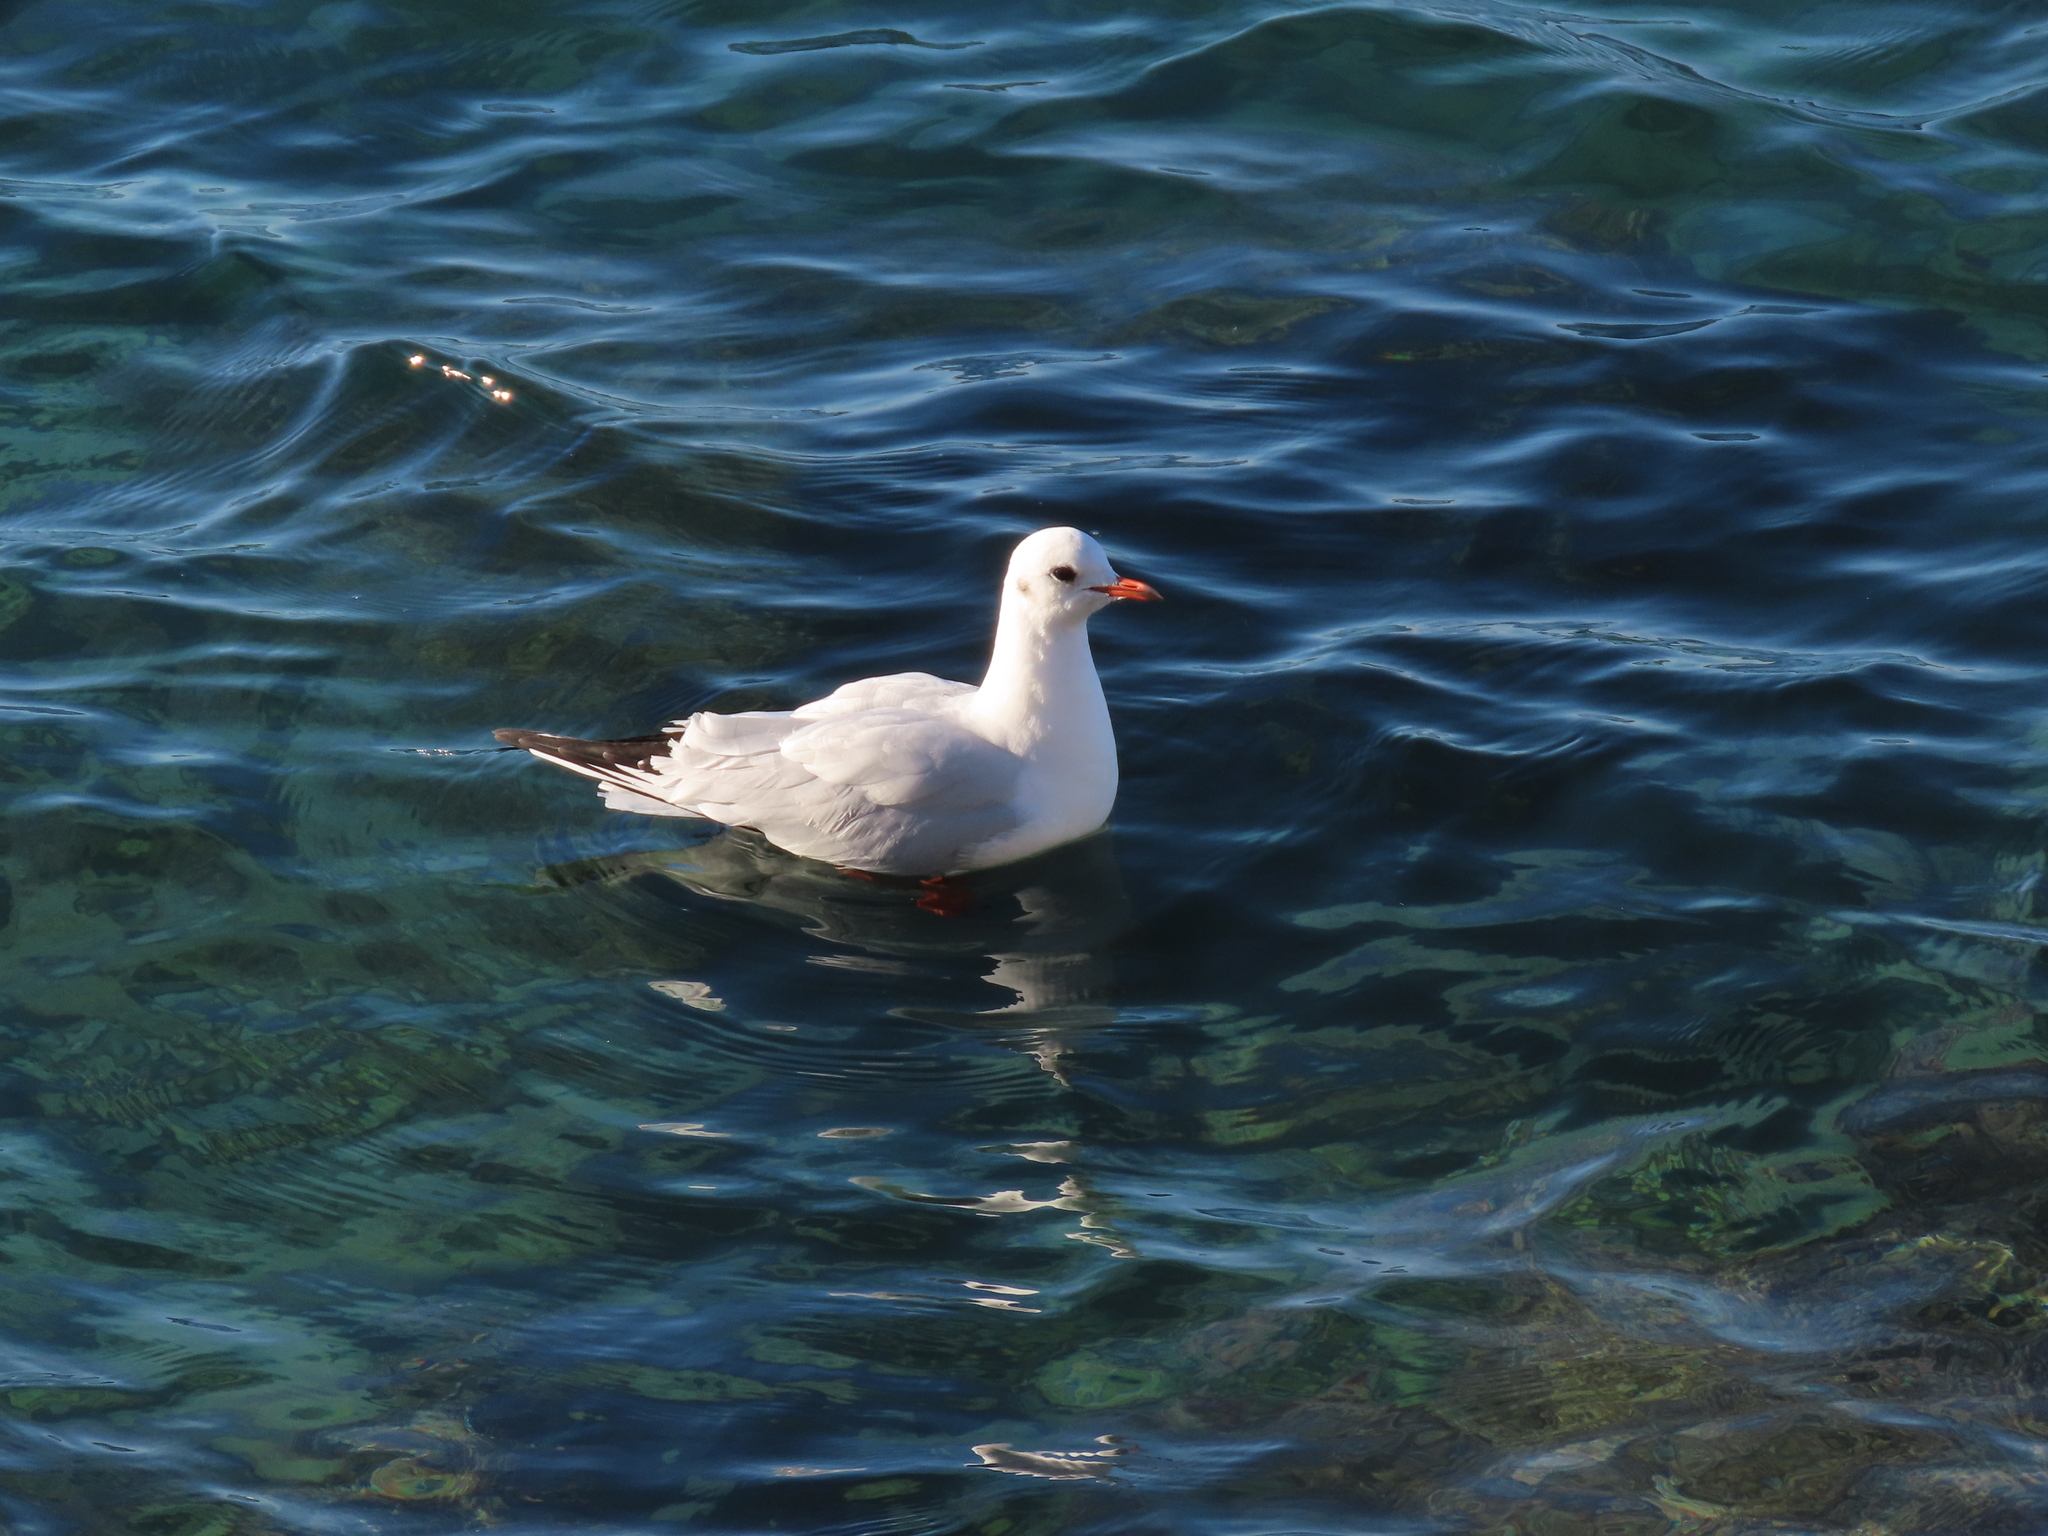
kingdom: Animalia
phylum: Chordata
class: Aves
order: Charadriiformes
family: Laridae
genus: Chroicocephalus
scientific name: Chroicocephalus ridibundus
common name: Black-headed gull
